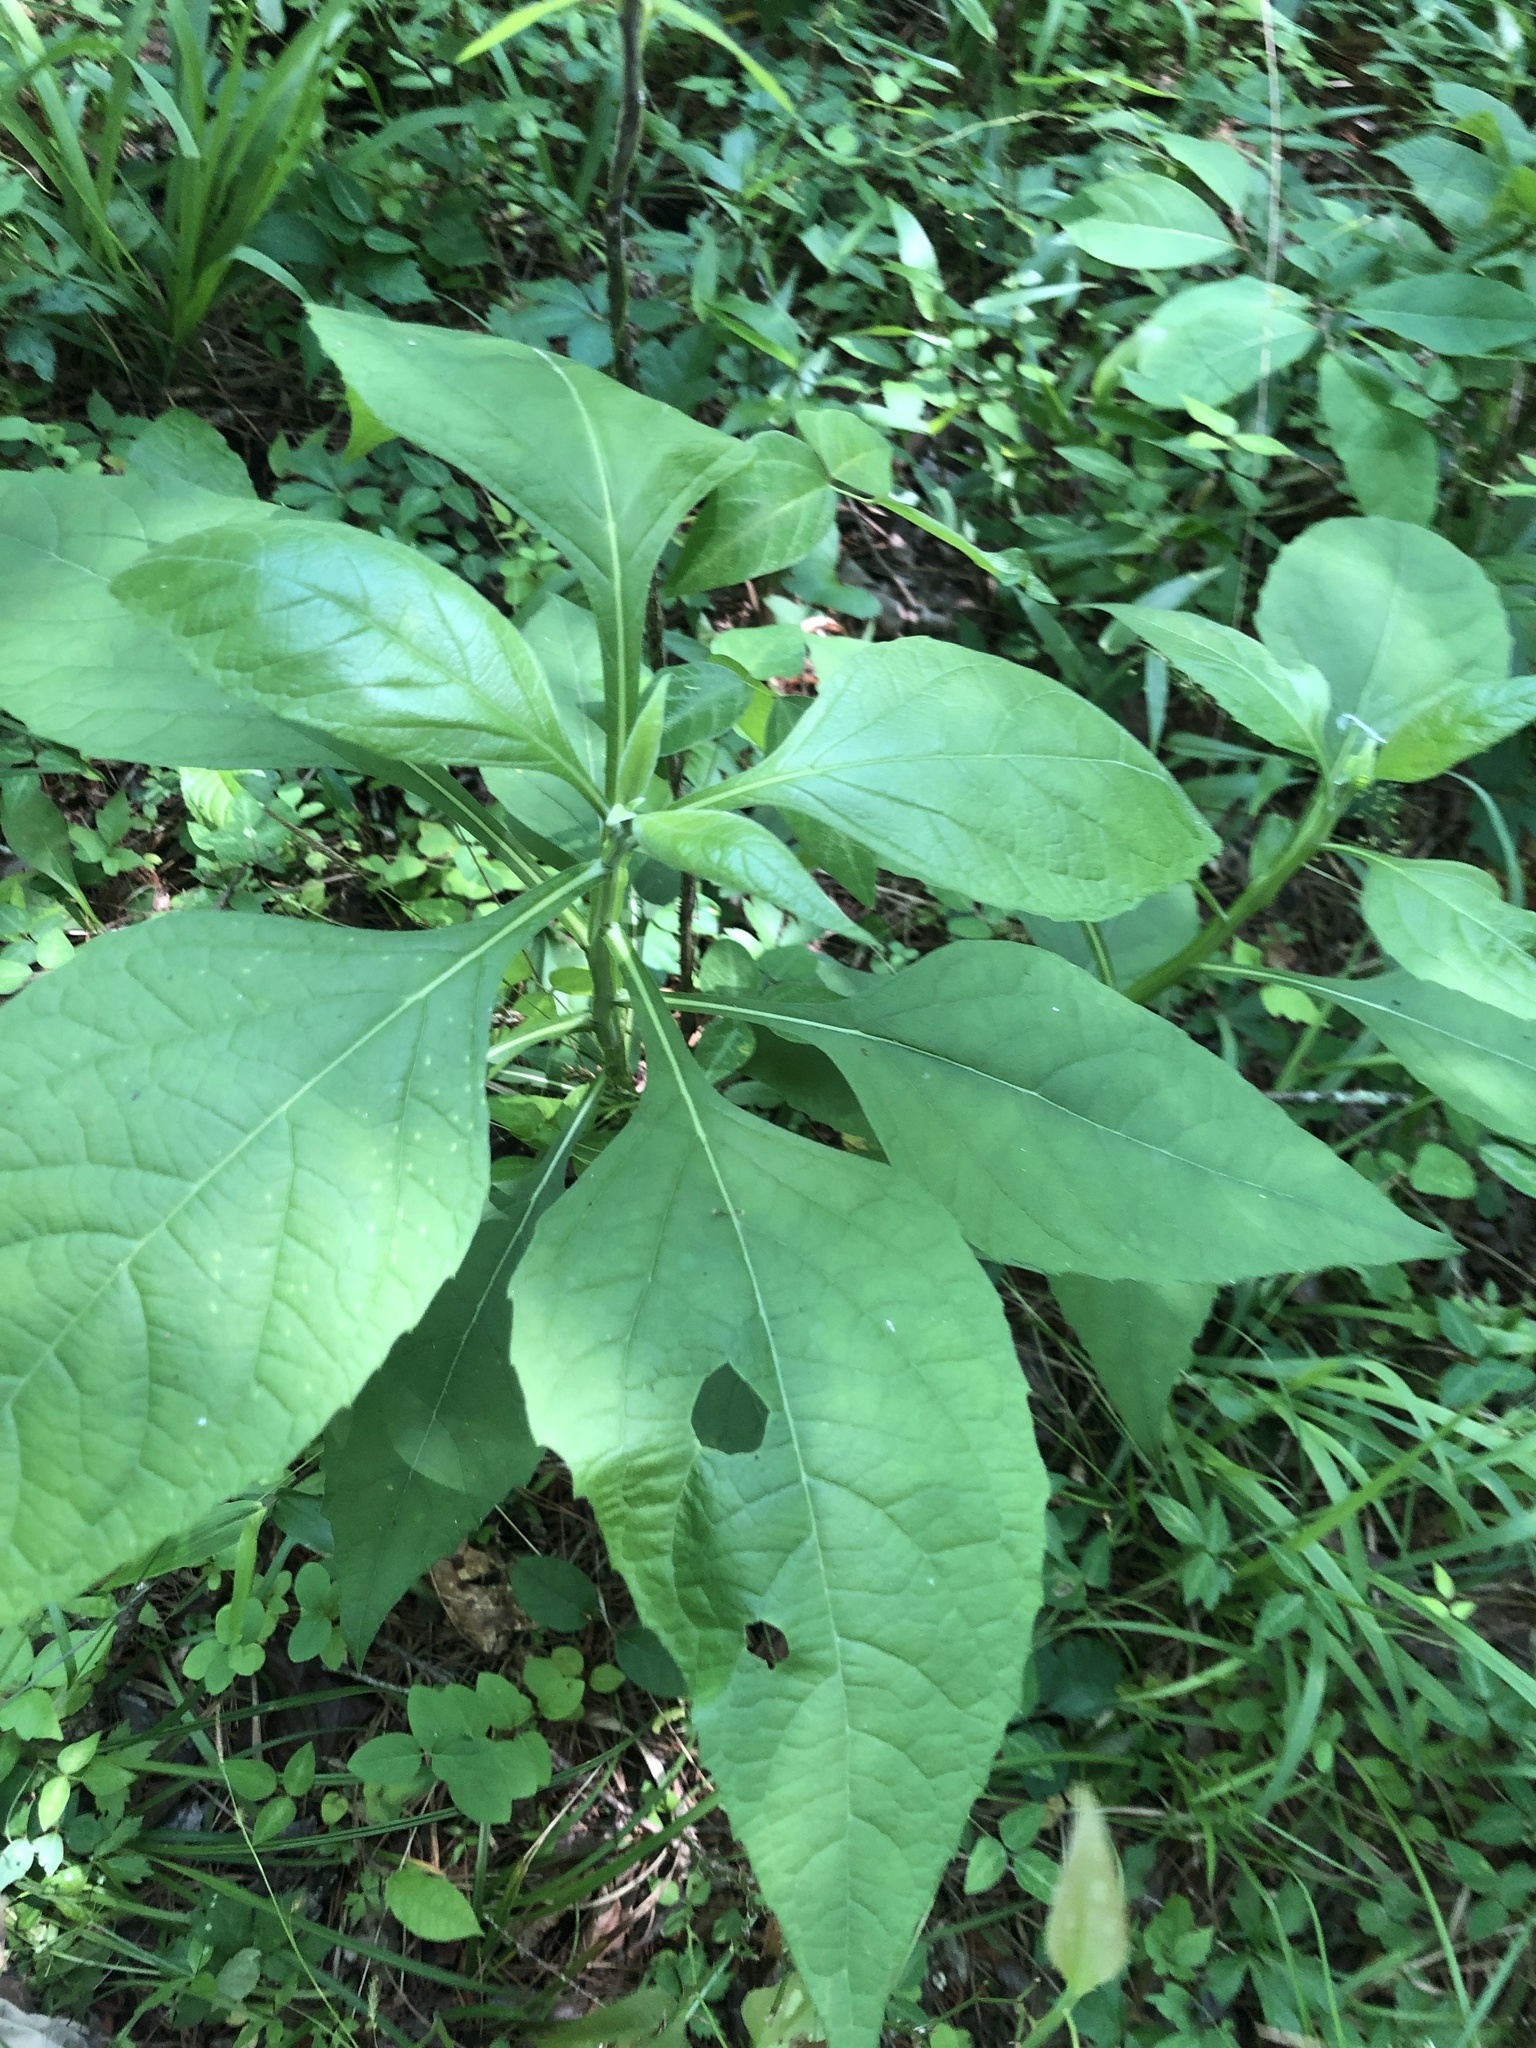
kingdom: Plantae
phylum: Tracheophyta
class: Magnoliopsida
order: Asterales
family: Asteraceae
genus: Verbesina
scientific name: Verbesina virginica
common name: Frostweed
